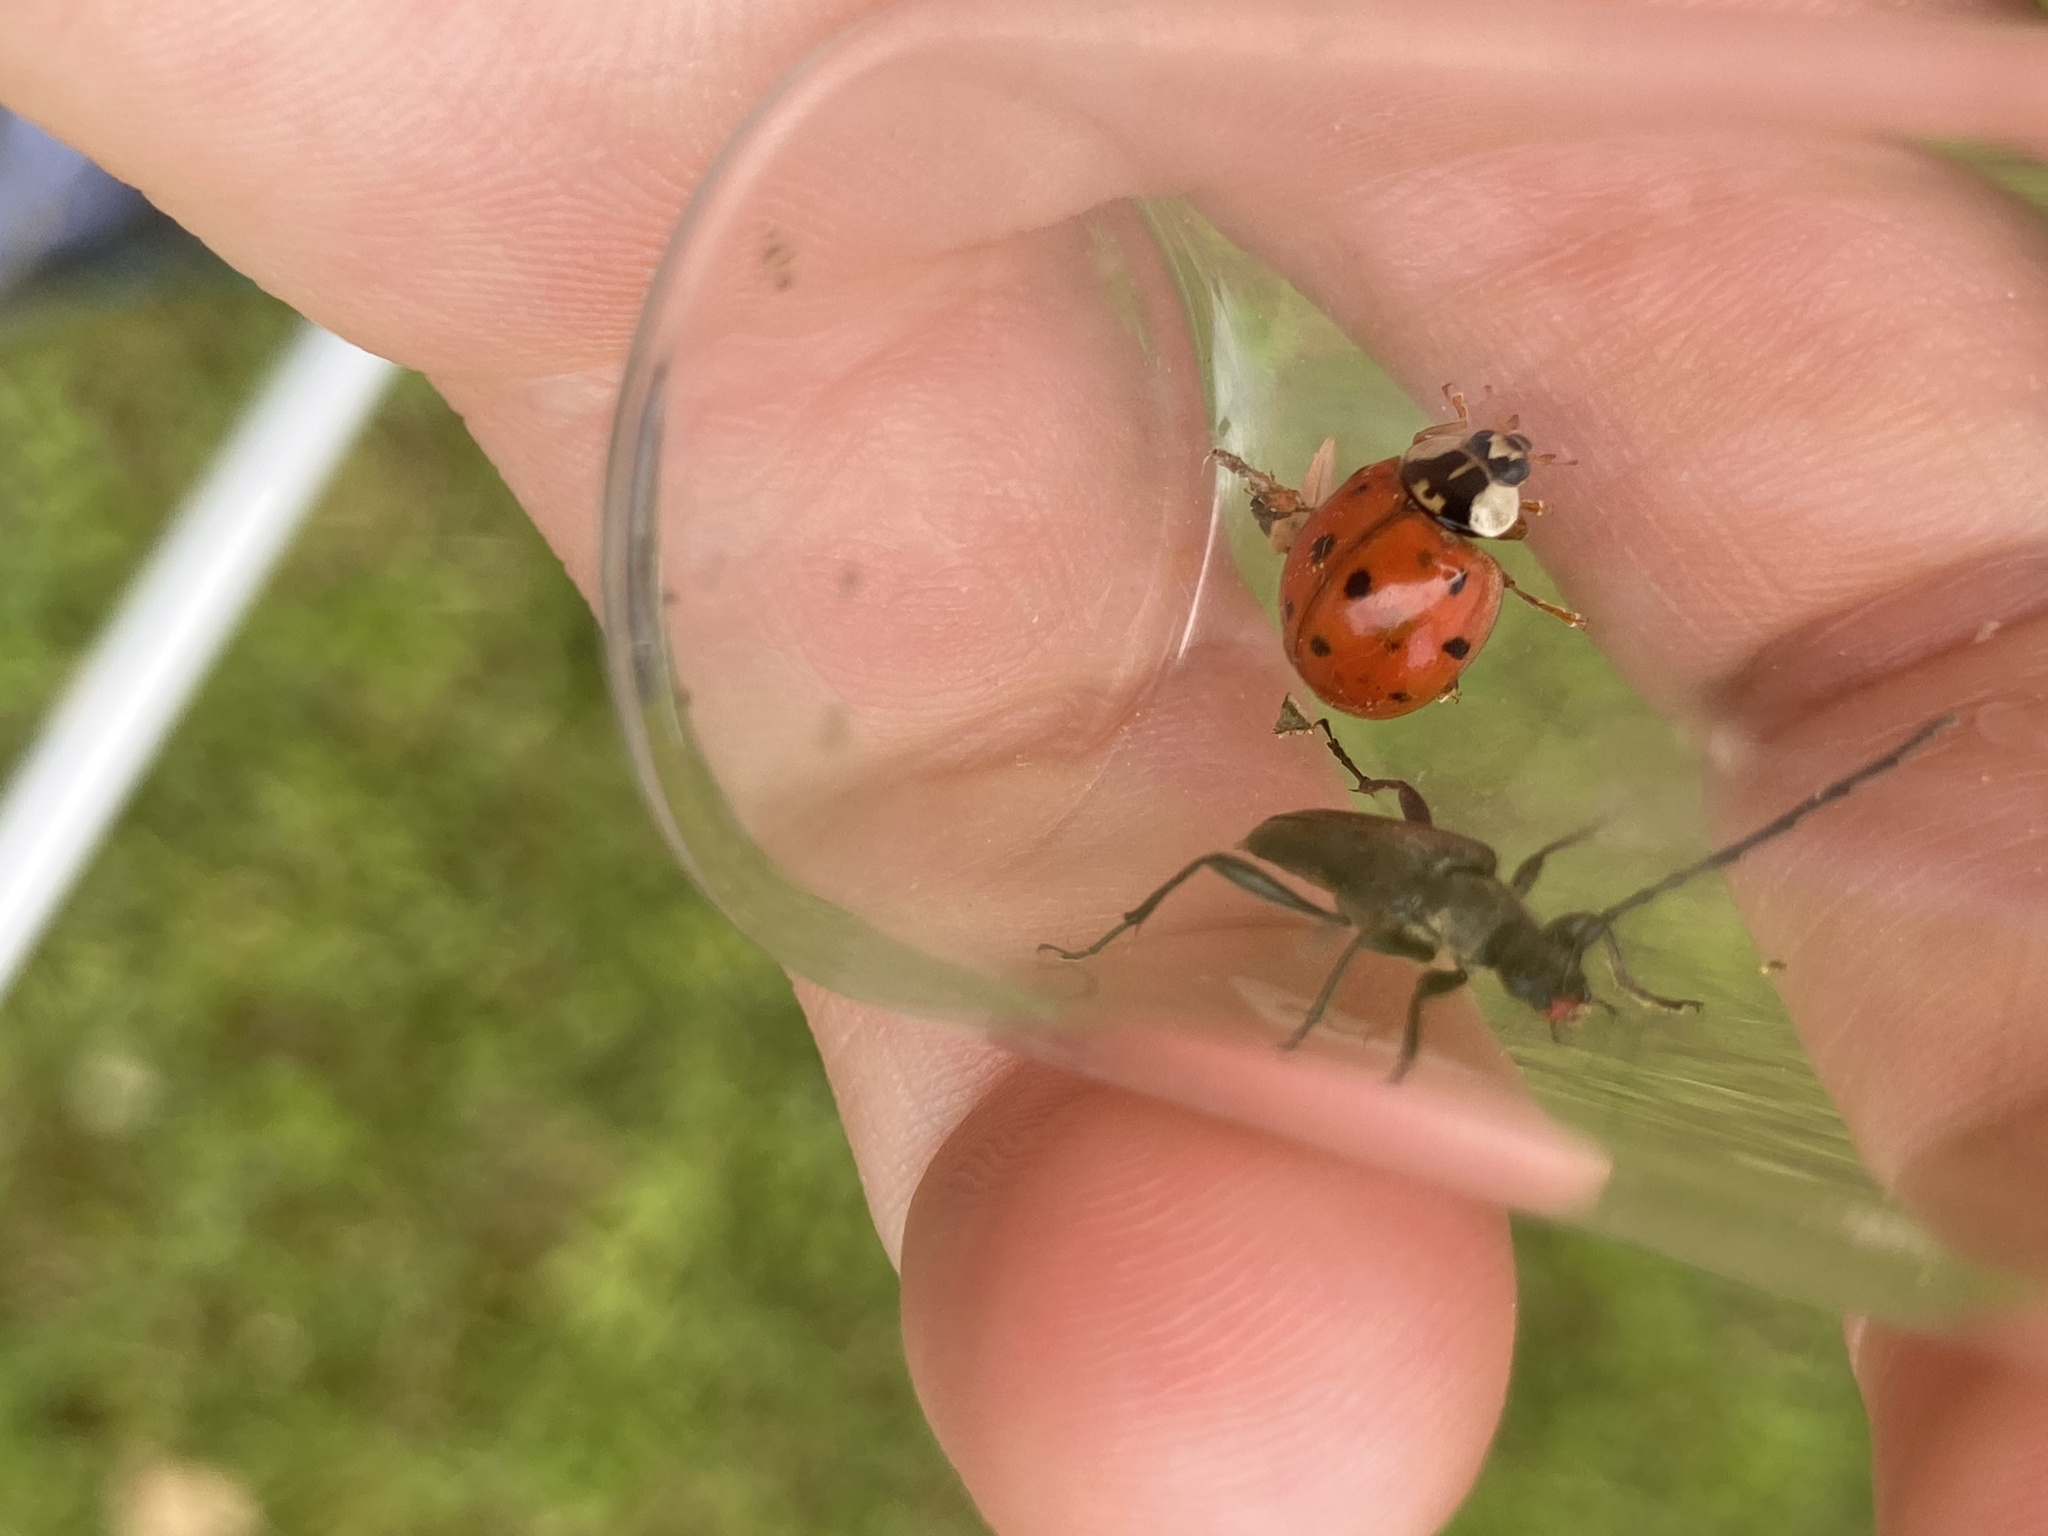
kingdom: Animalia
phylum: Arthropoda
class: Insecta
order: Coleoptera
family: Coccinellidae
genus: Harmonia
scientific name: Harmonia axyridis
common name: Harlequin ladybird
